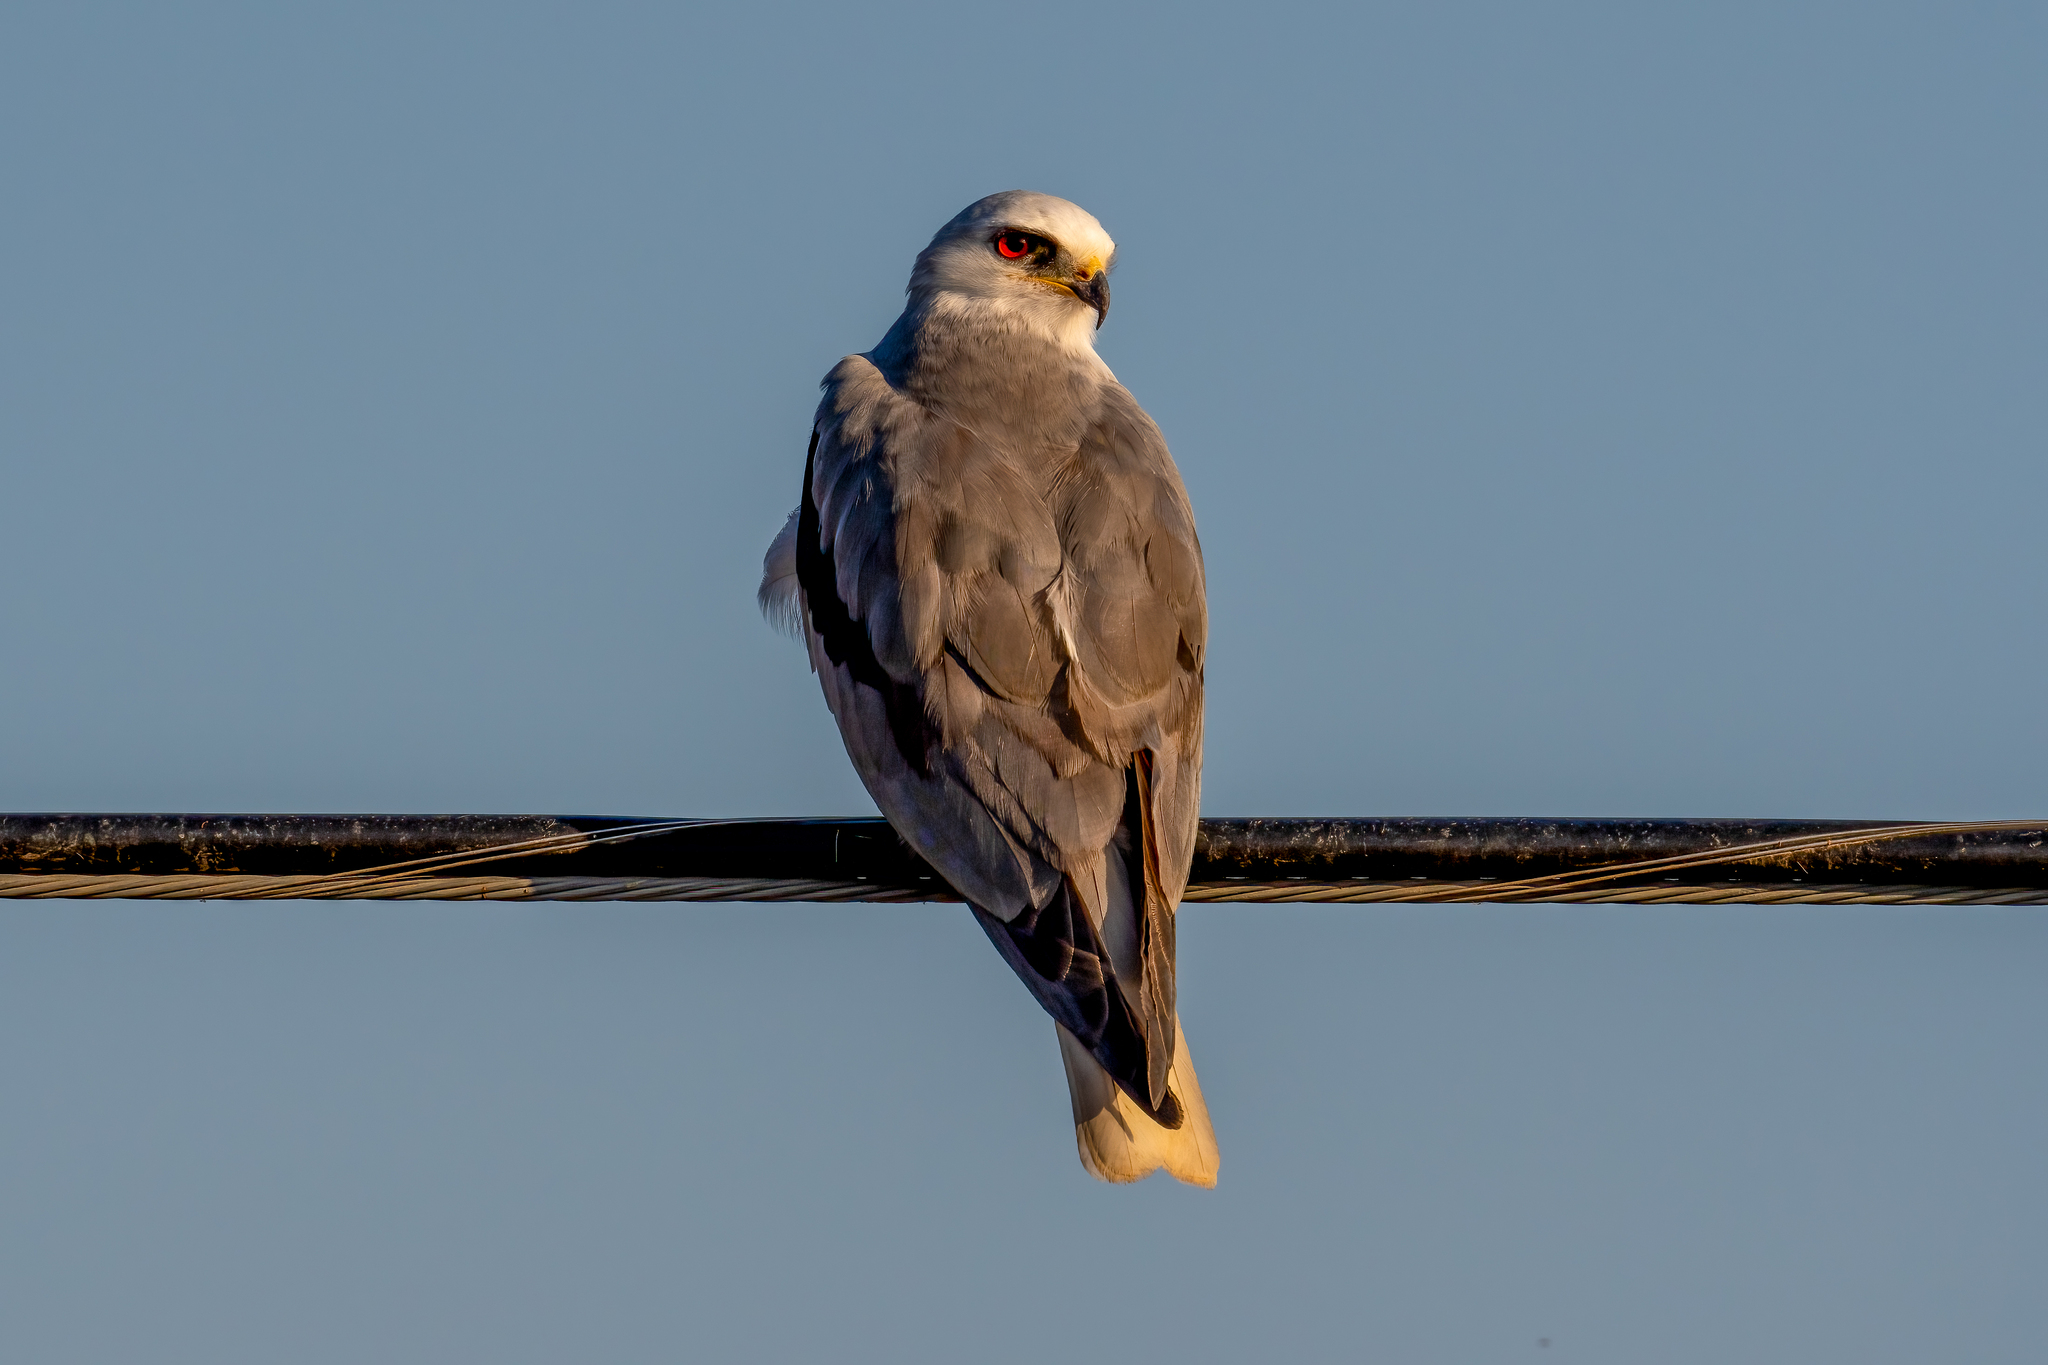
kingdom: Animalia
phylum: Chordata
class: Aves
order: Accipitriformes
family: Accipitridae
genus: Elanus
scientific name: Elanus leucurus
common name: White-tailed kite
